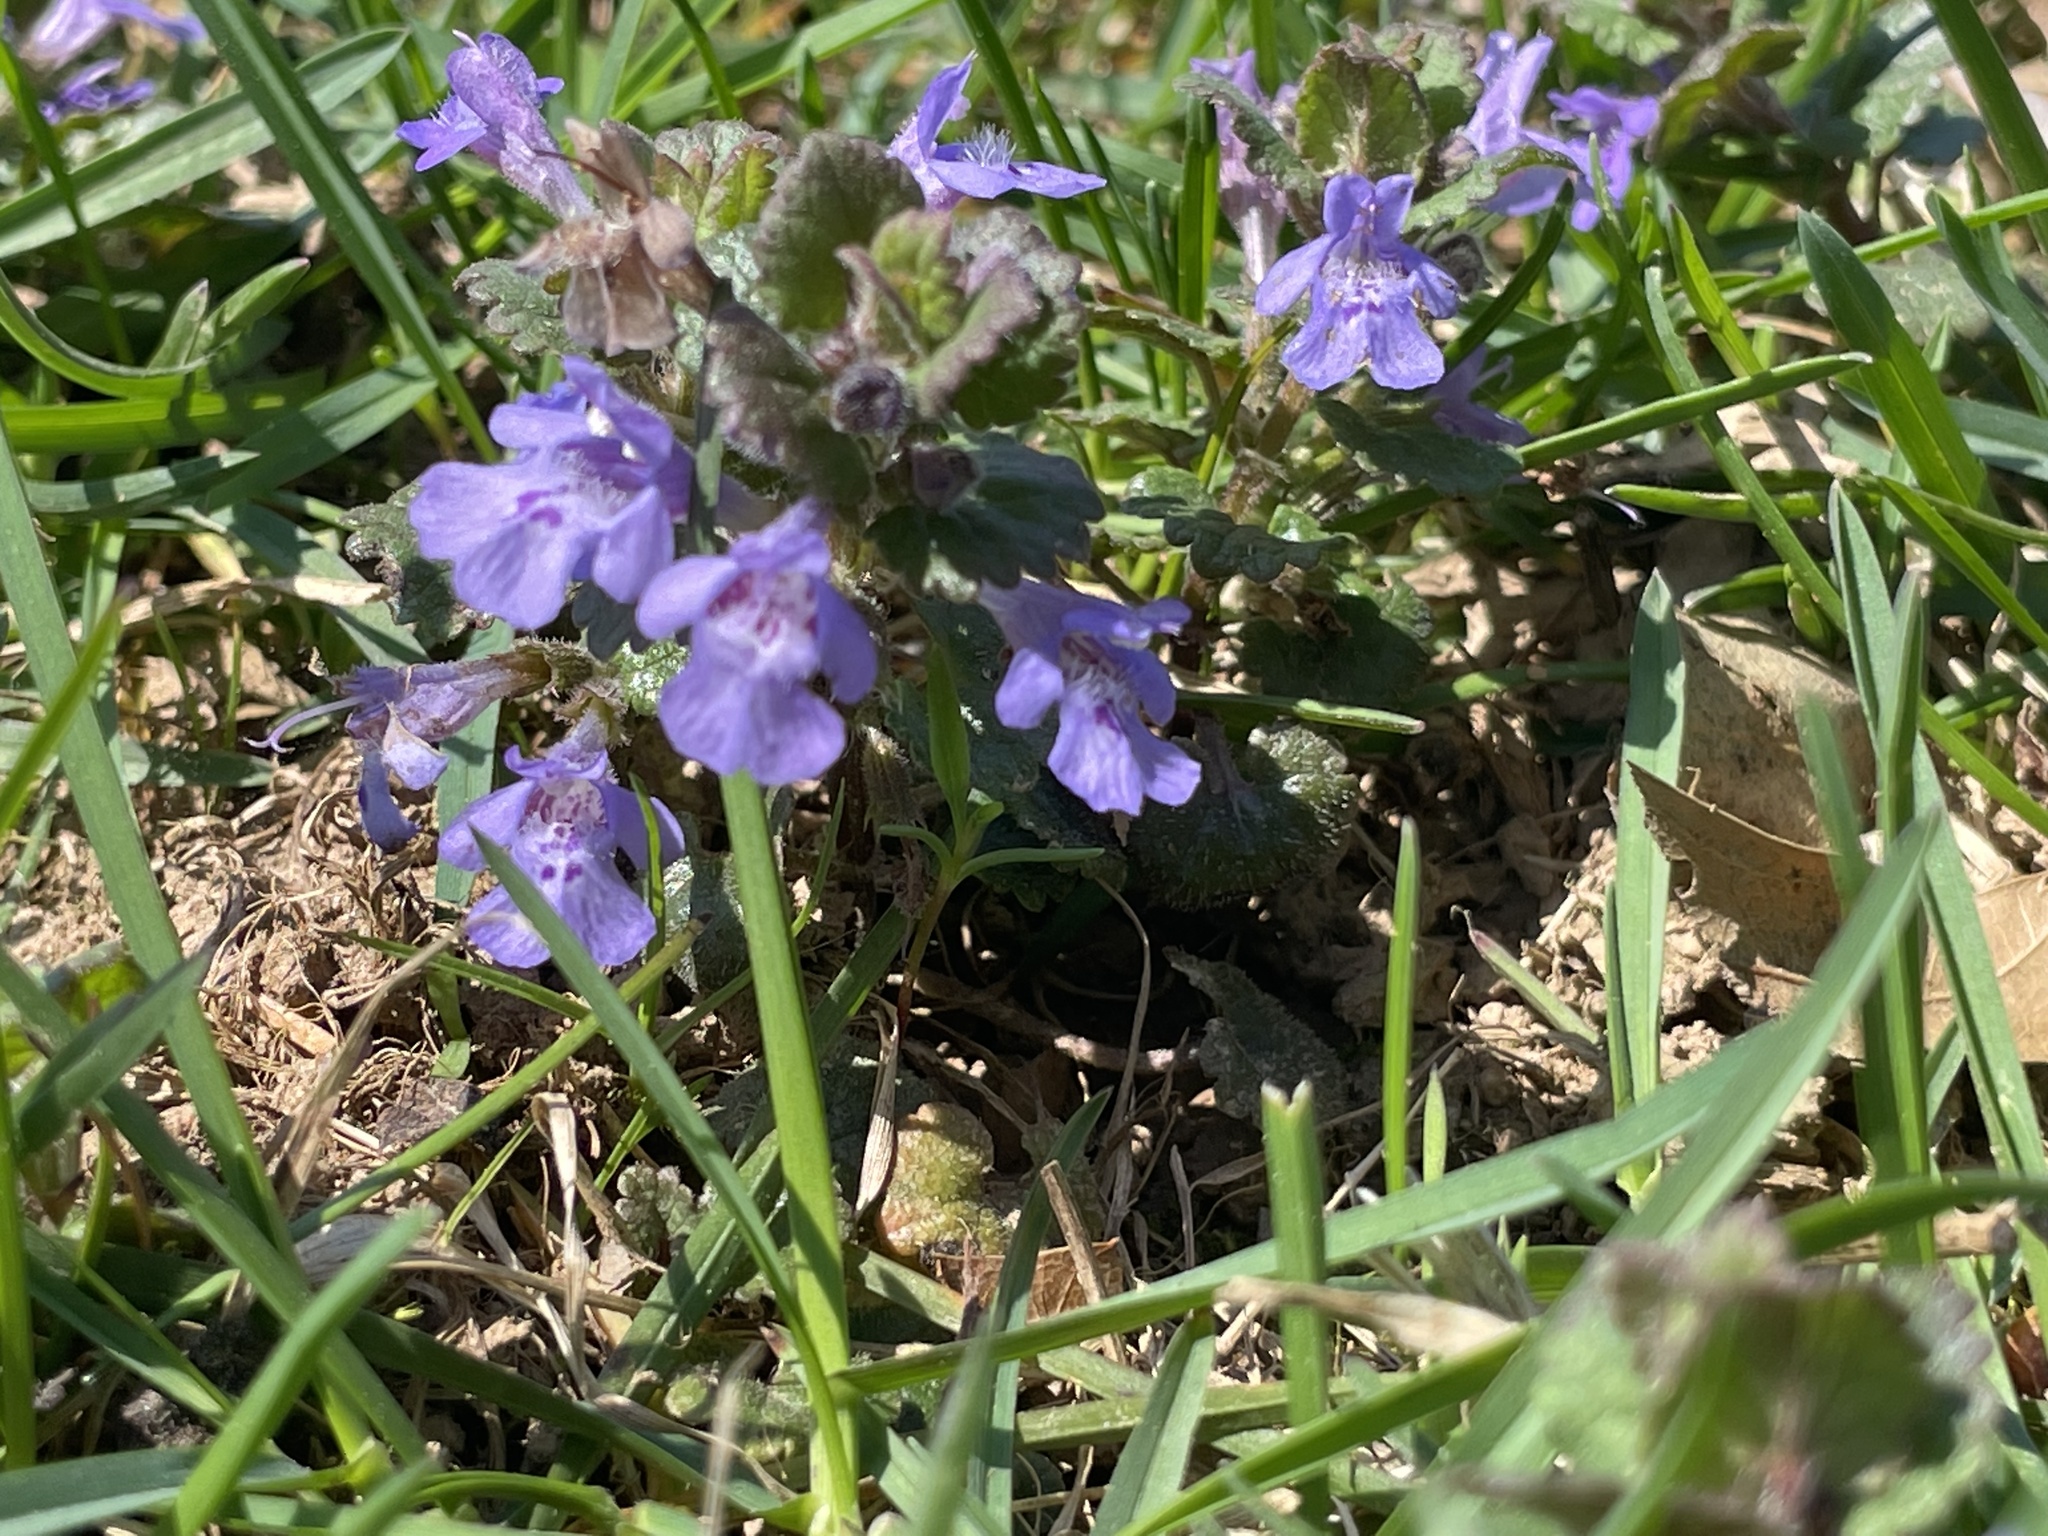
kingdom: Plantae
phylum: Tracheophyta
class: Magnoliopsida
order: Lamiales
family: Lamiaceae
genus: Glechoma
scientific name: Glechoma hederacea
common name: Ground ivy
